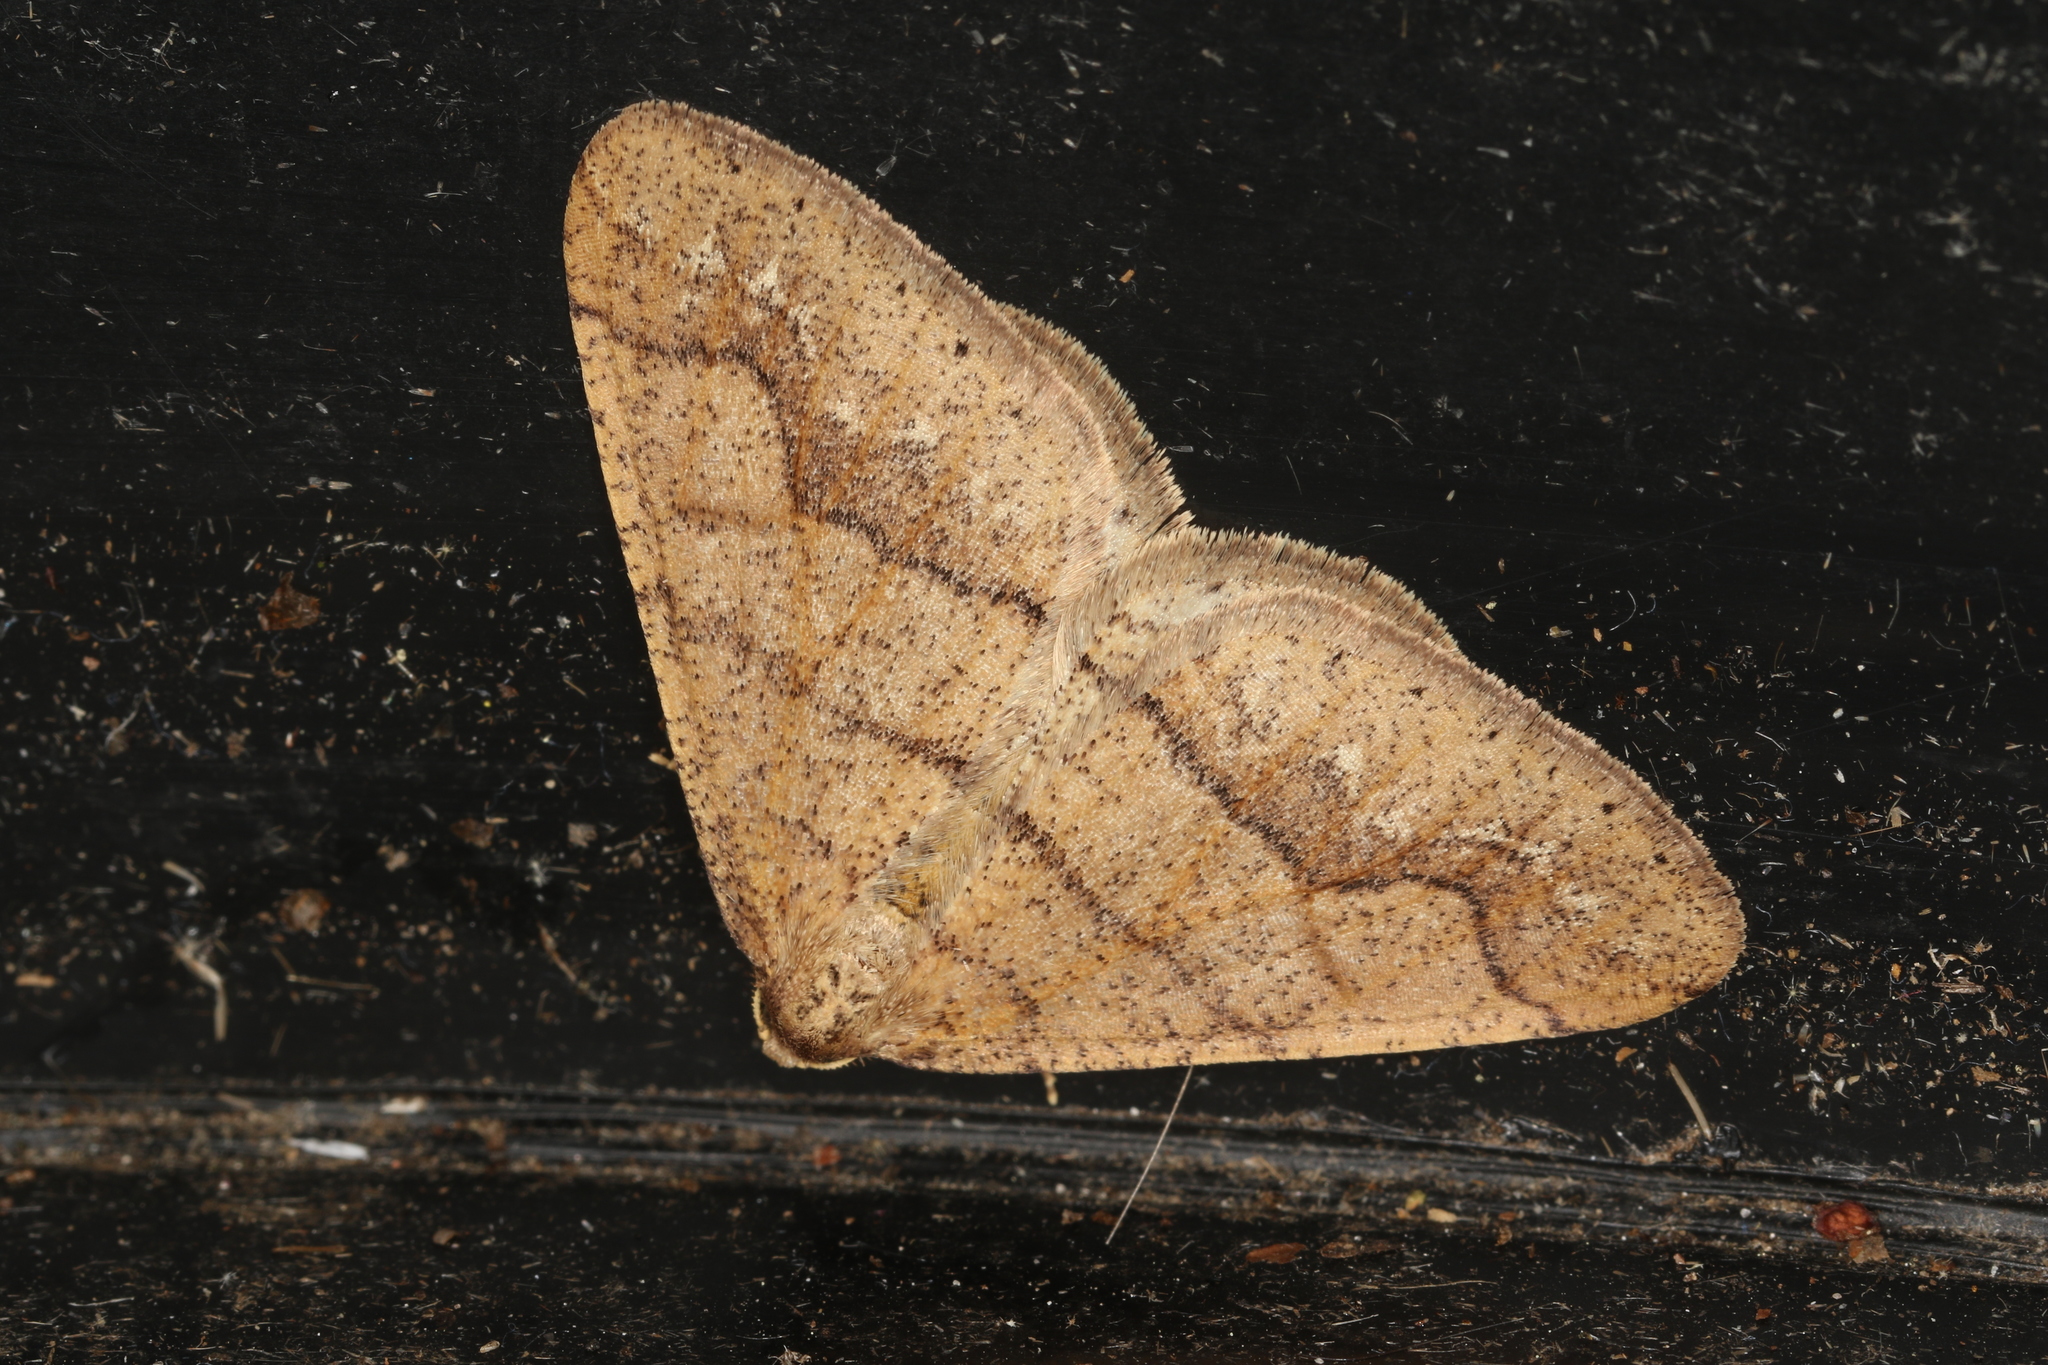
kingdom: Animalia
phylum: Arthropoda
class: Insecta
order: Lepidoptera
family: Geometridae
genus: Agriopis
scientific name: Agriopis marginaria
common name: Dotted border
